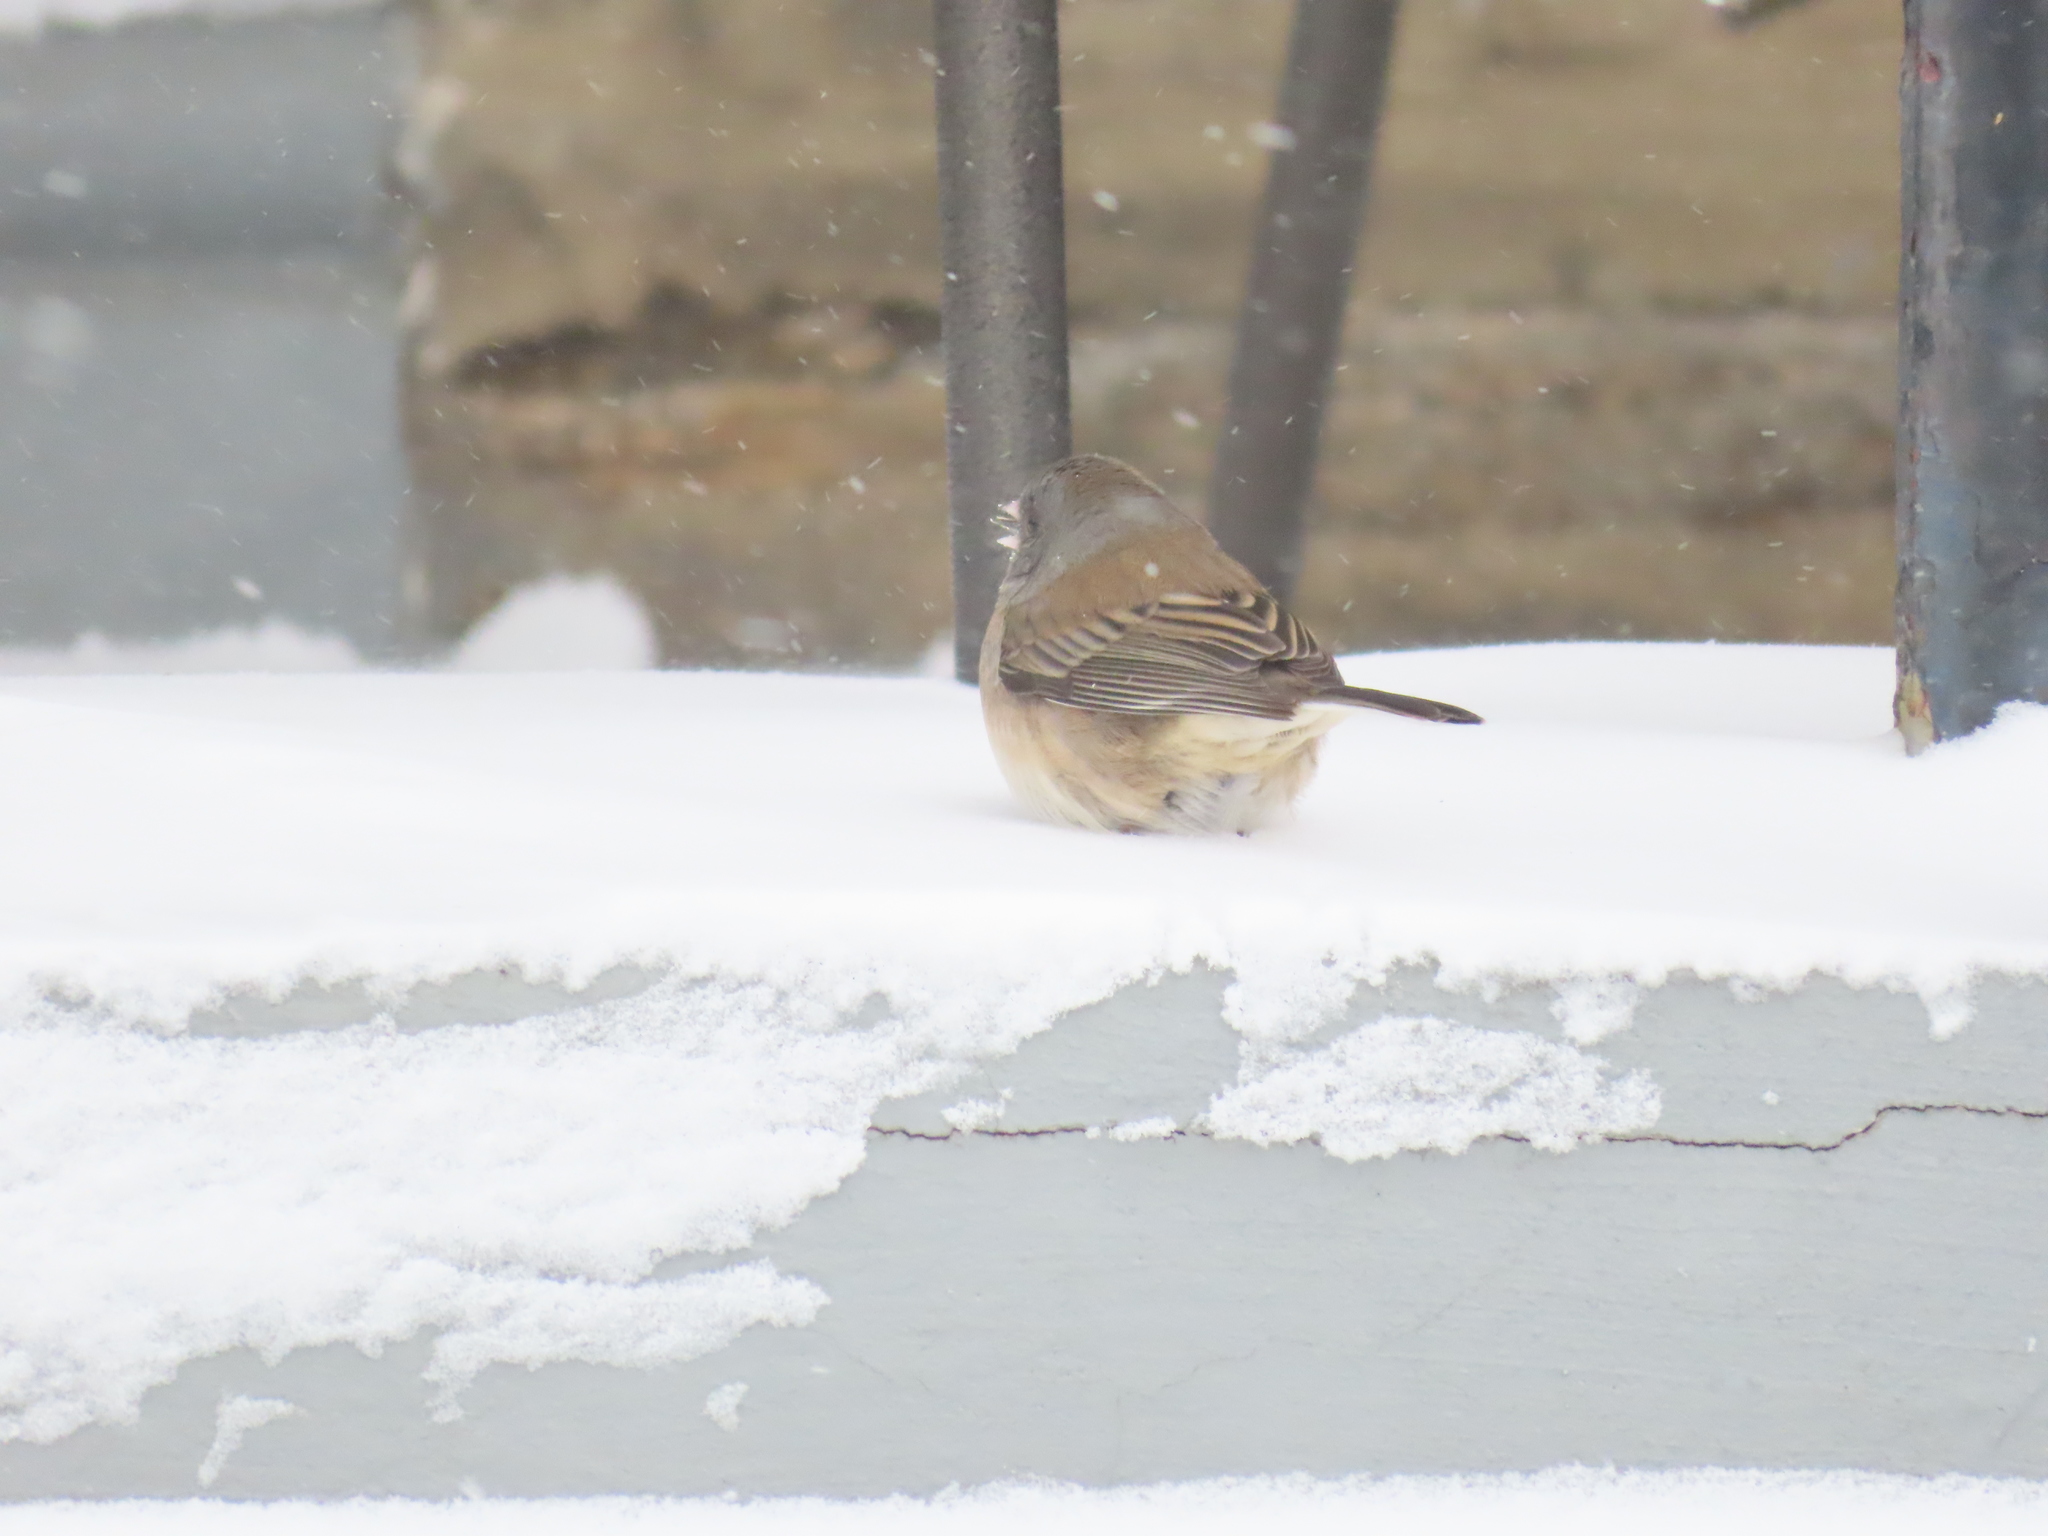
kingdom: Animalia
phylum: Chordata
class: Aves
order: Passeriformes
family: Passerellidae
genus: Junco
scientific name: Junco hyemalis
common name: Dark-eyed junco
